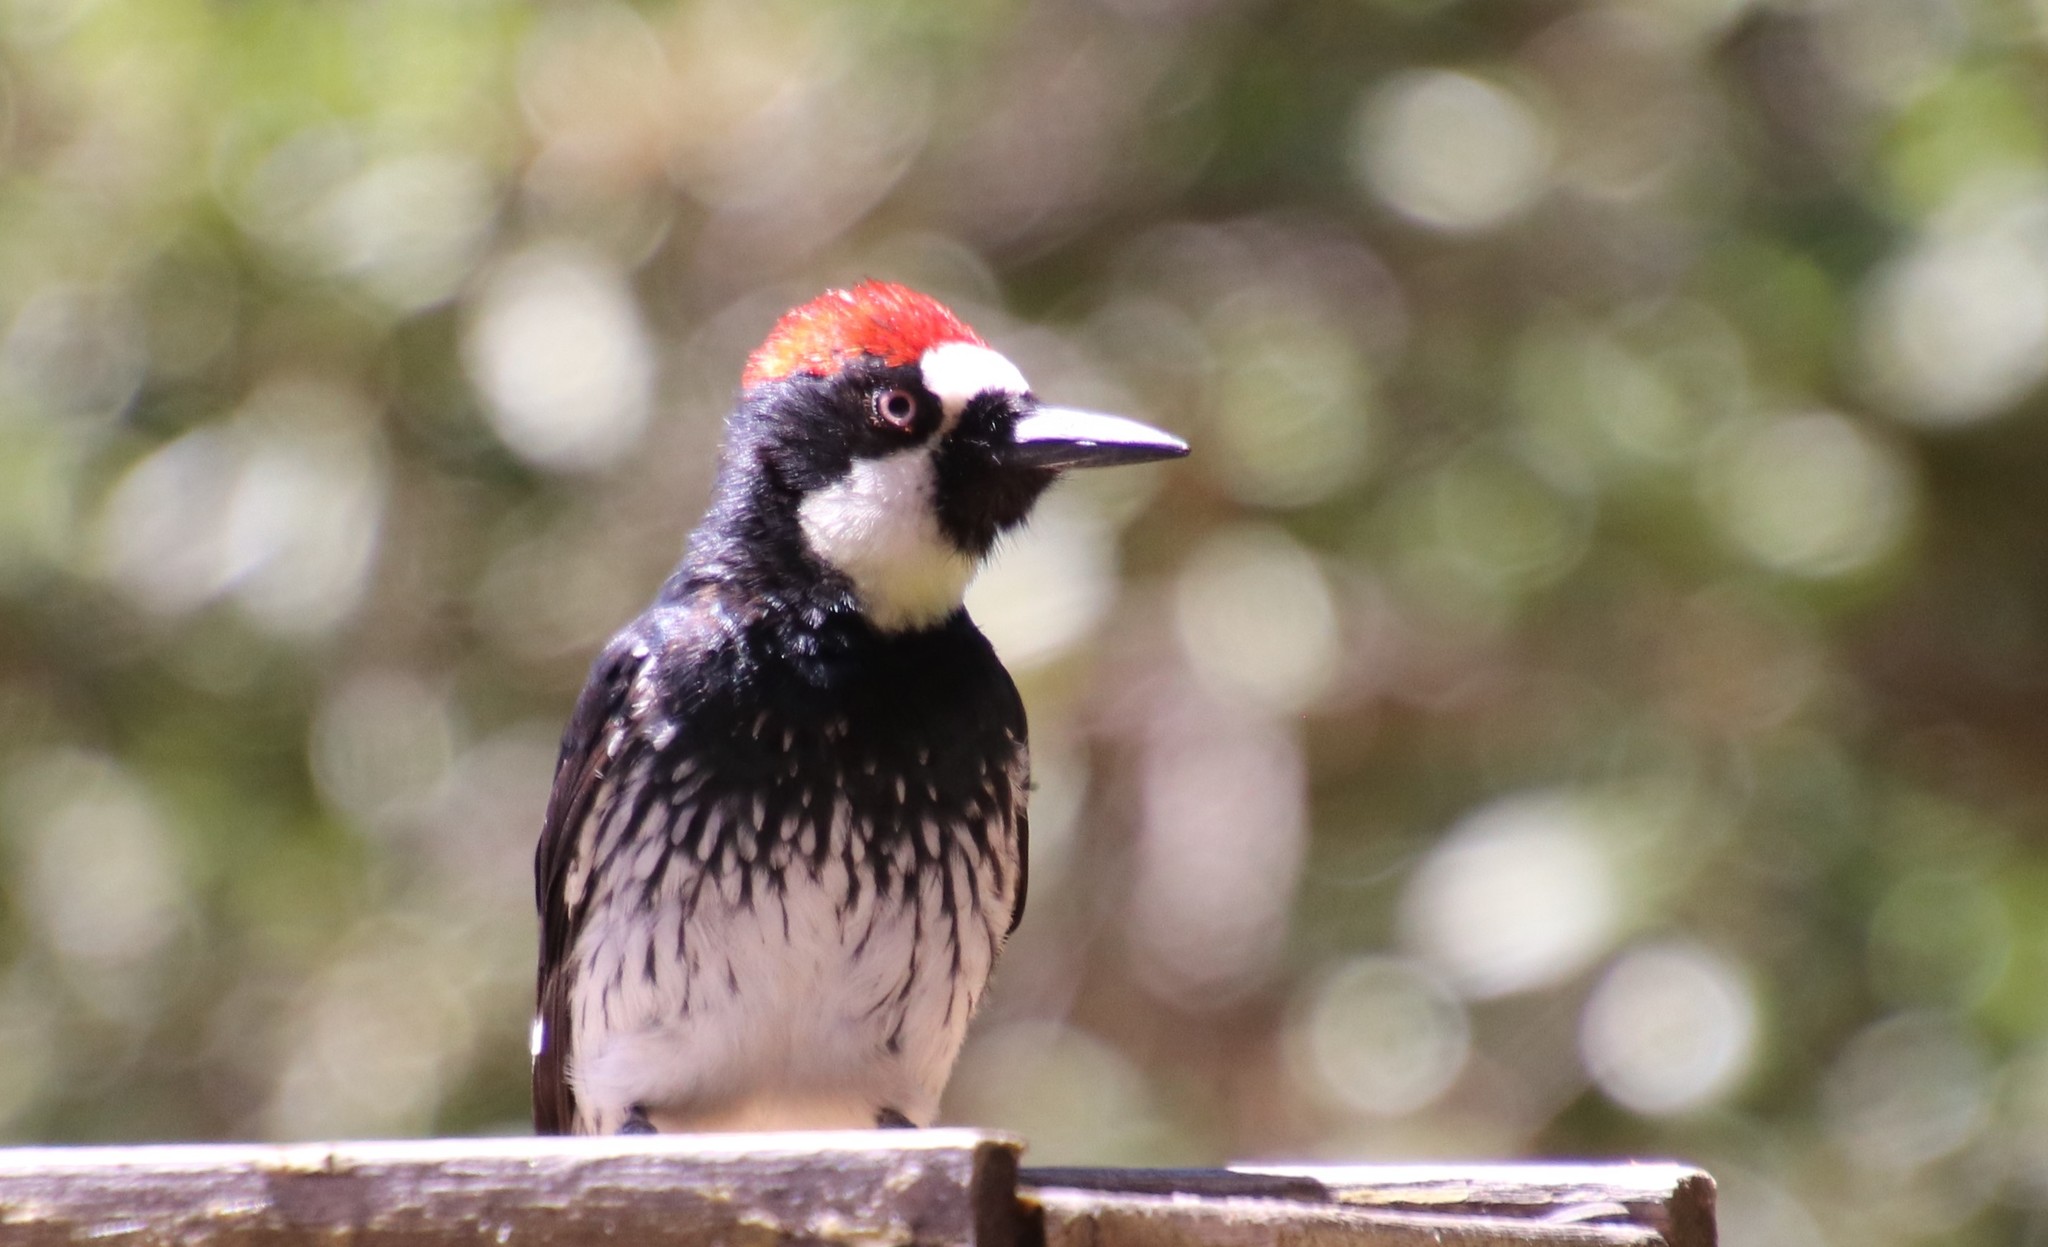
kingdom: Animalia
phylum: Chordata
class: Aves
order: Piciformes
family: Picidae
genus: Melanerpes
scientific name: Melanerpes formicivorus
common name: Acorn woodpecker
